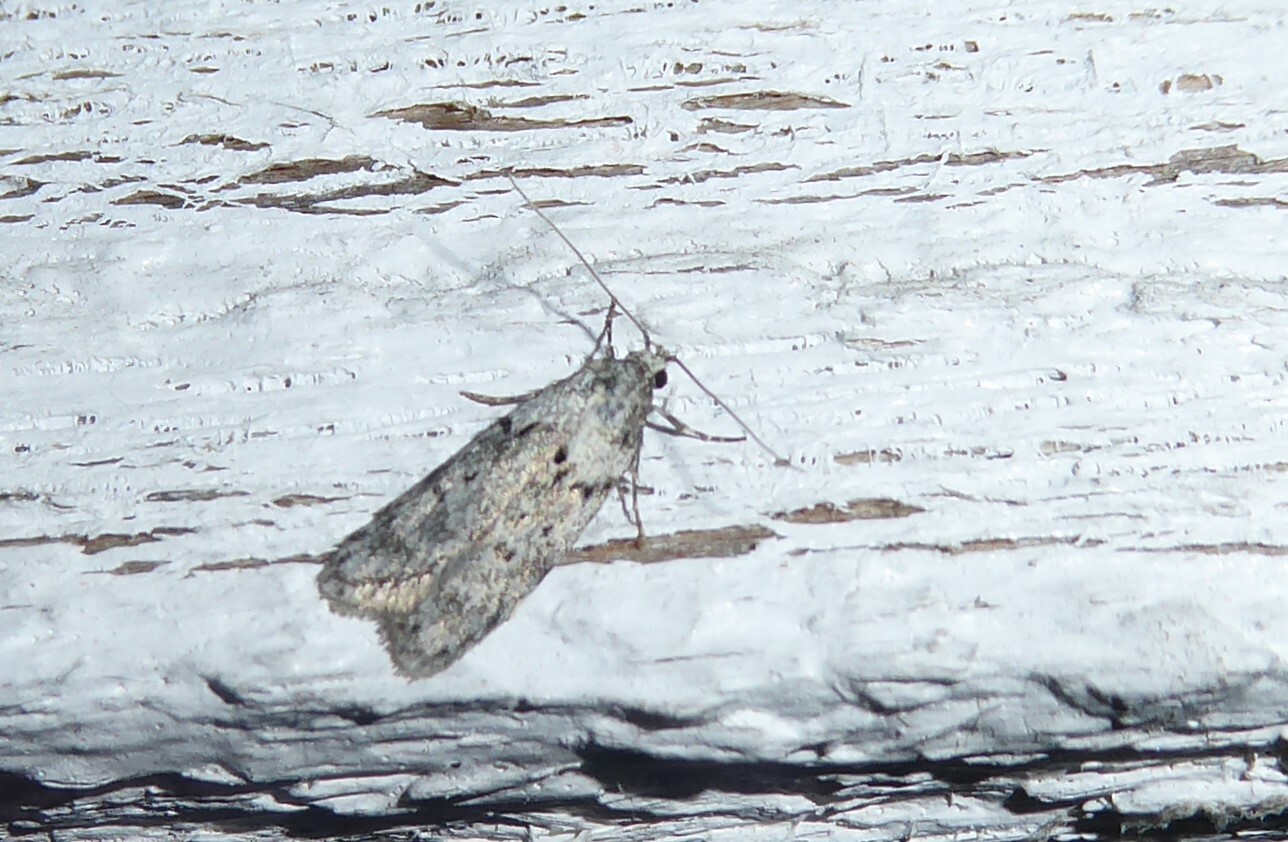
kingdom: Animalia
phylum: Arthropoda
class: Insecta
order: Lepidoptera
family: Oecophoridae
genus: Izatha
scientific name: Izatha convulsella
